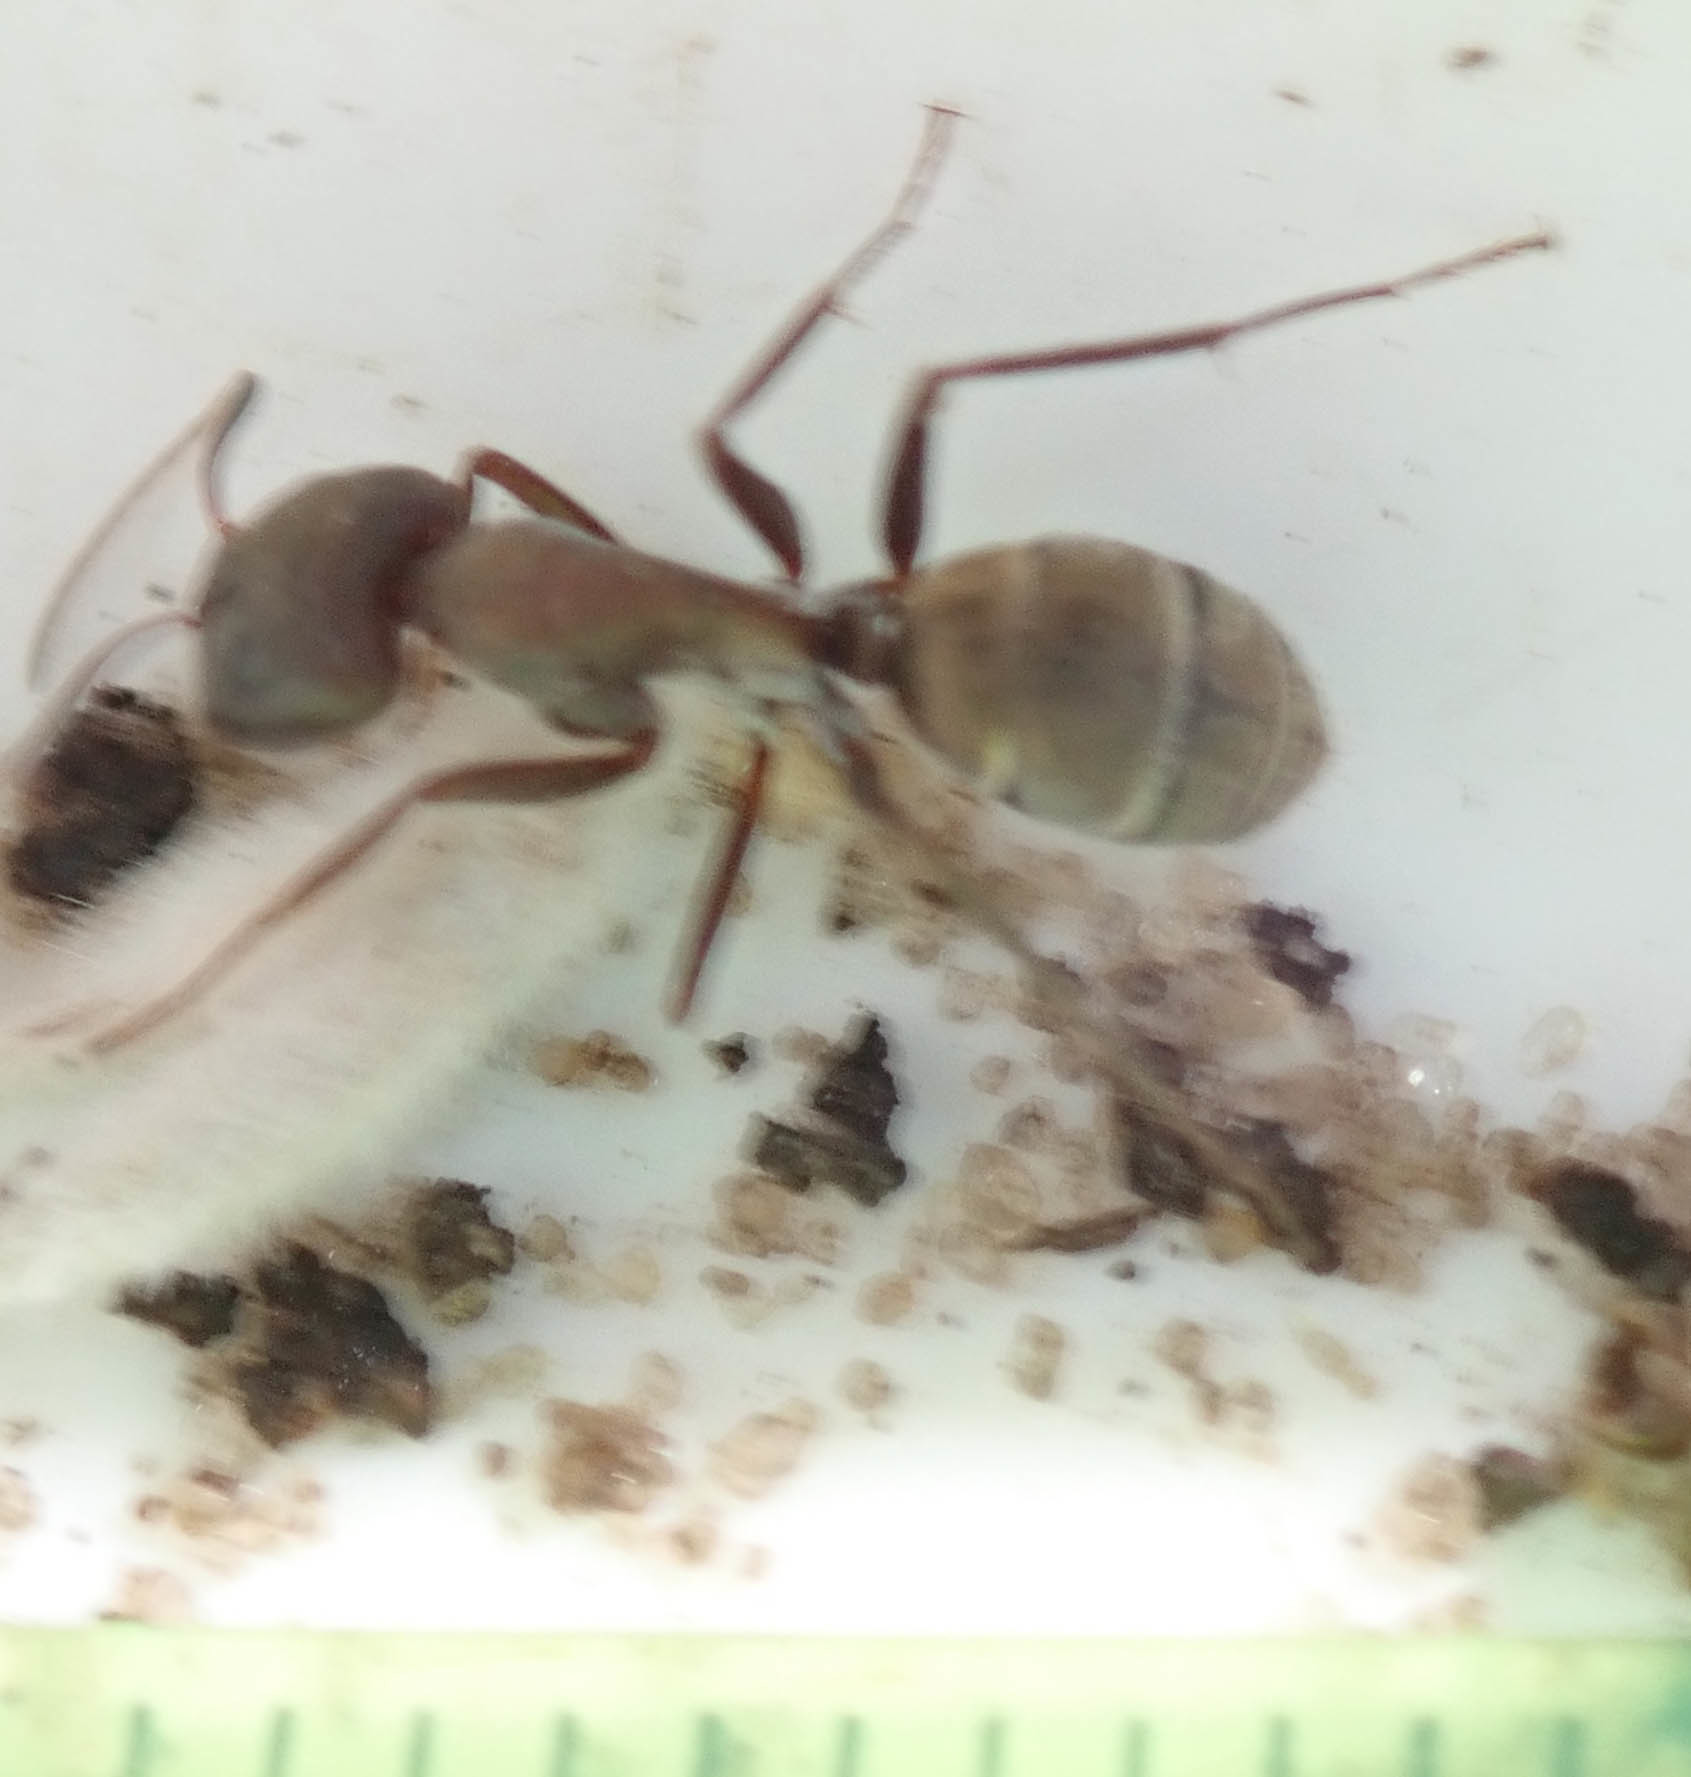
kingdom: Animalia
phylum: Arthropoda
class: Insecta
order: Hymenoptera
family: Formicidae
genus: Camponotus
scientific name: Camponotus vestitus
